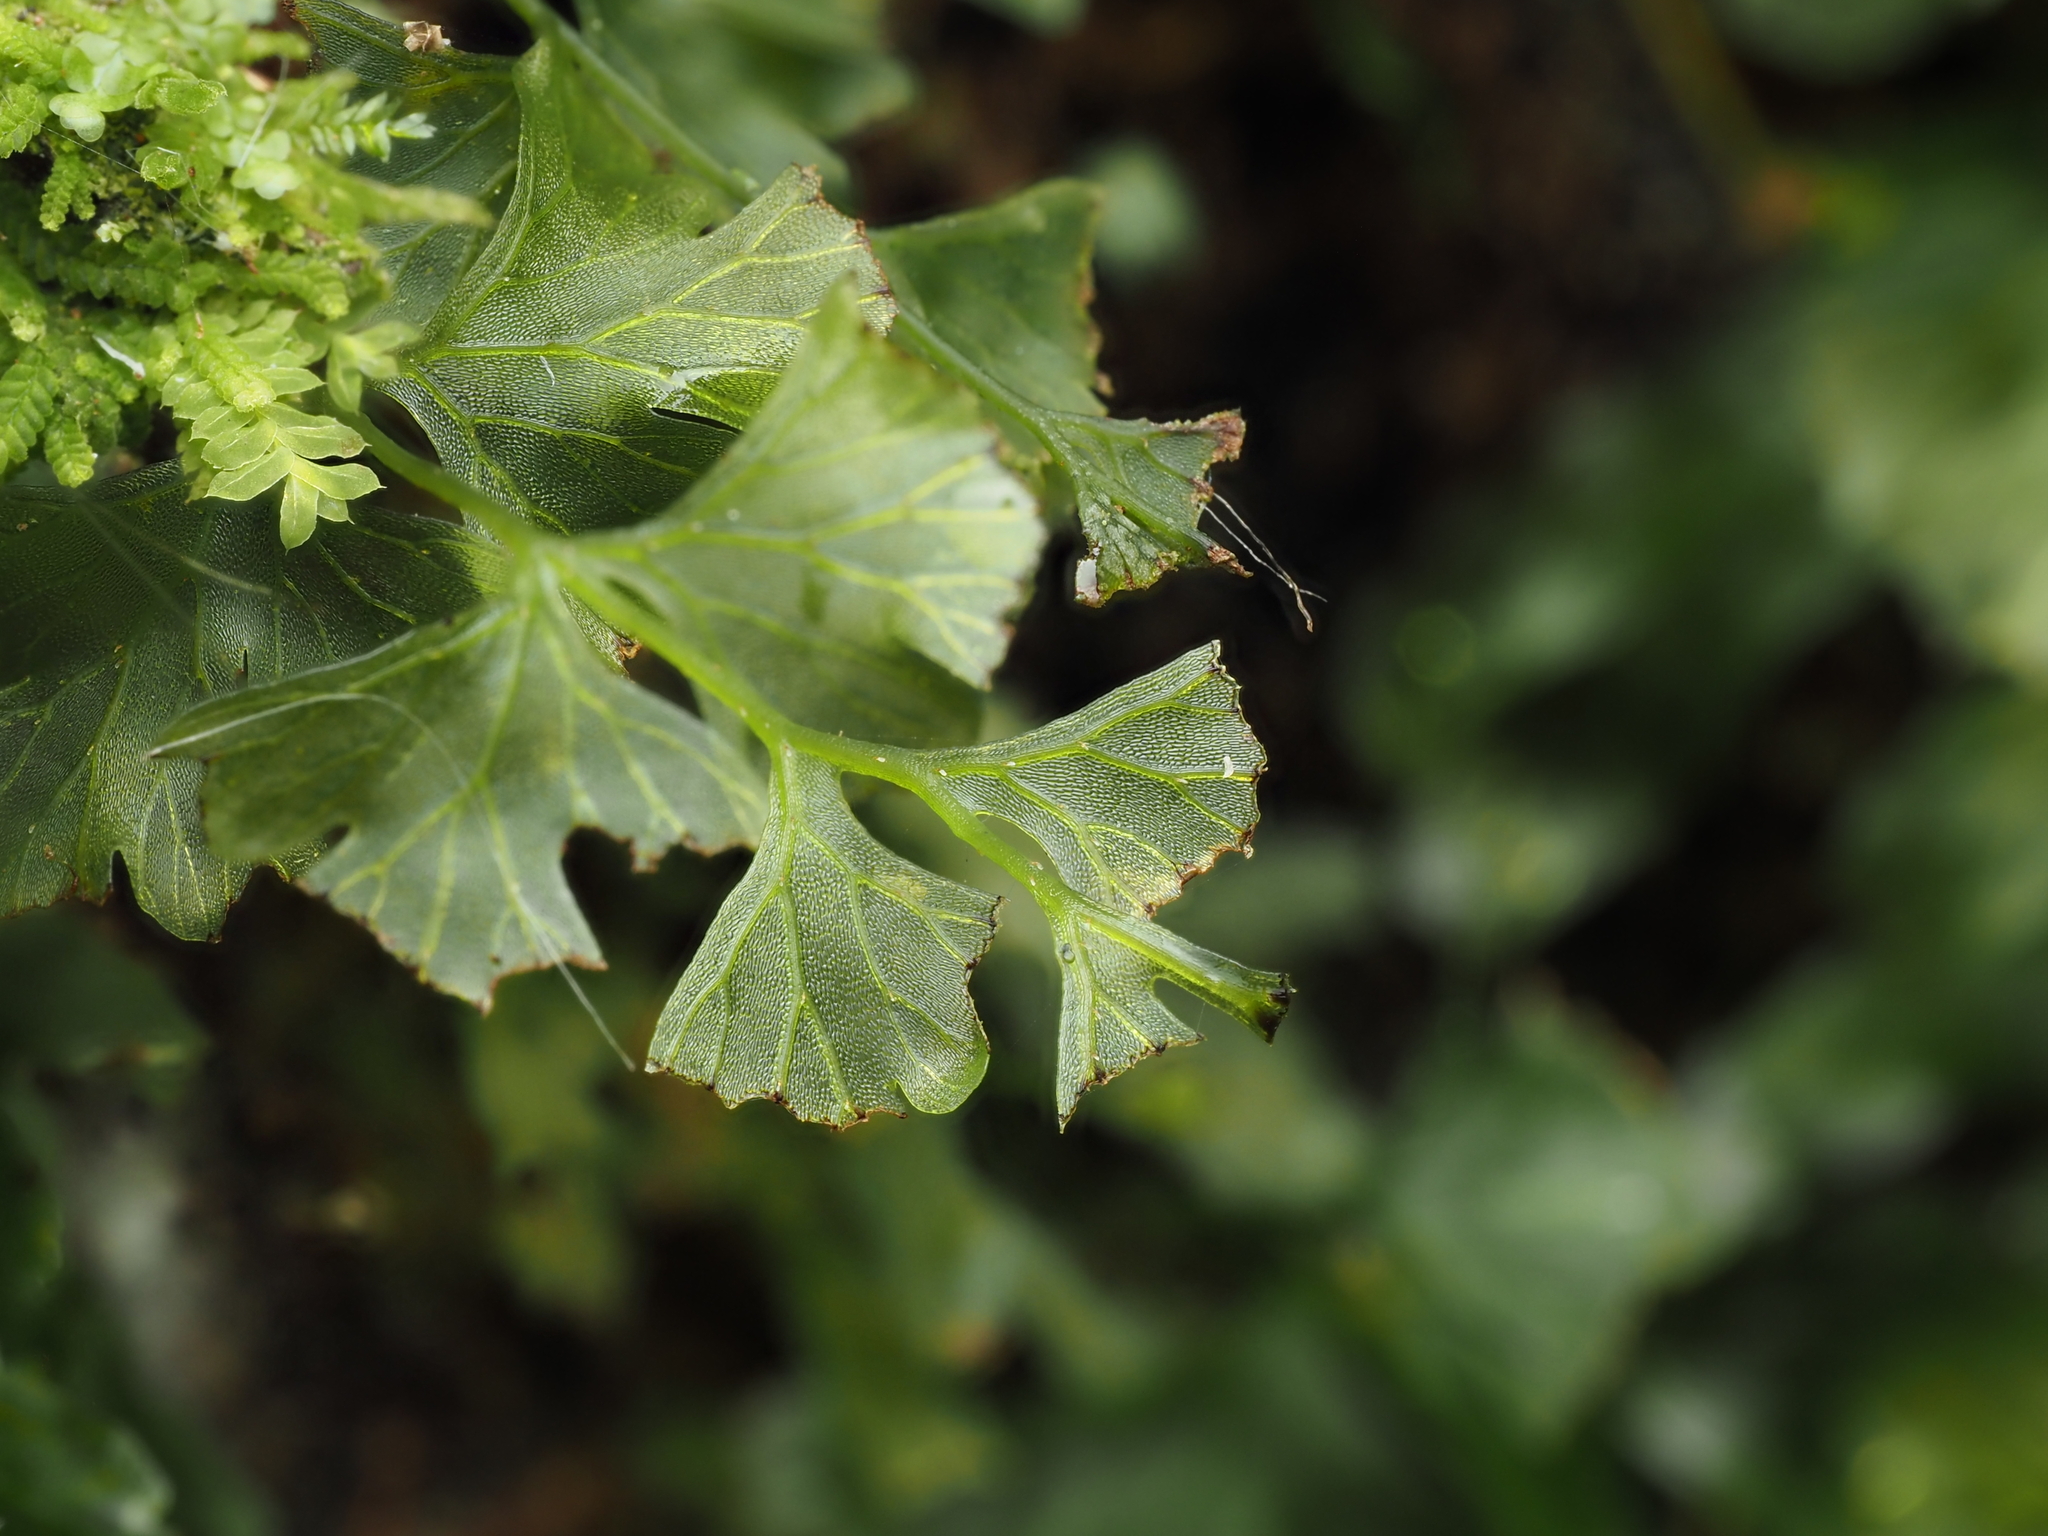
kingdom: Plantae
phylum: Tracheophyta
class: Polypodiopsida
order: Hymenophyllales
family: Hymenophyllaceae
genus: Polyphlebium
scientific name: Polyphlebium venosum
